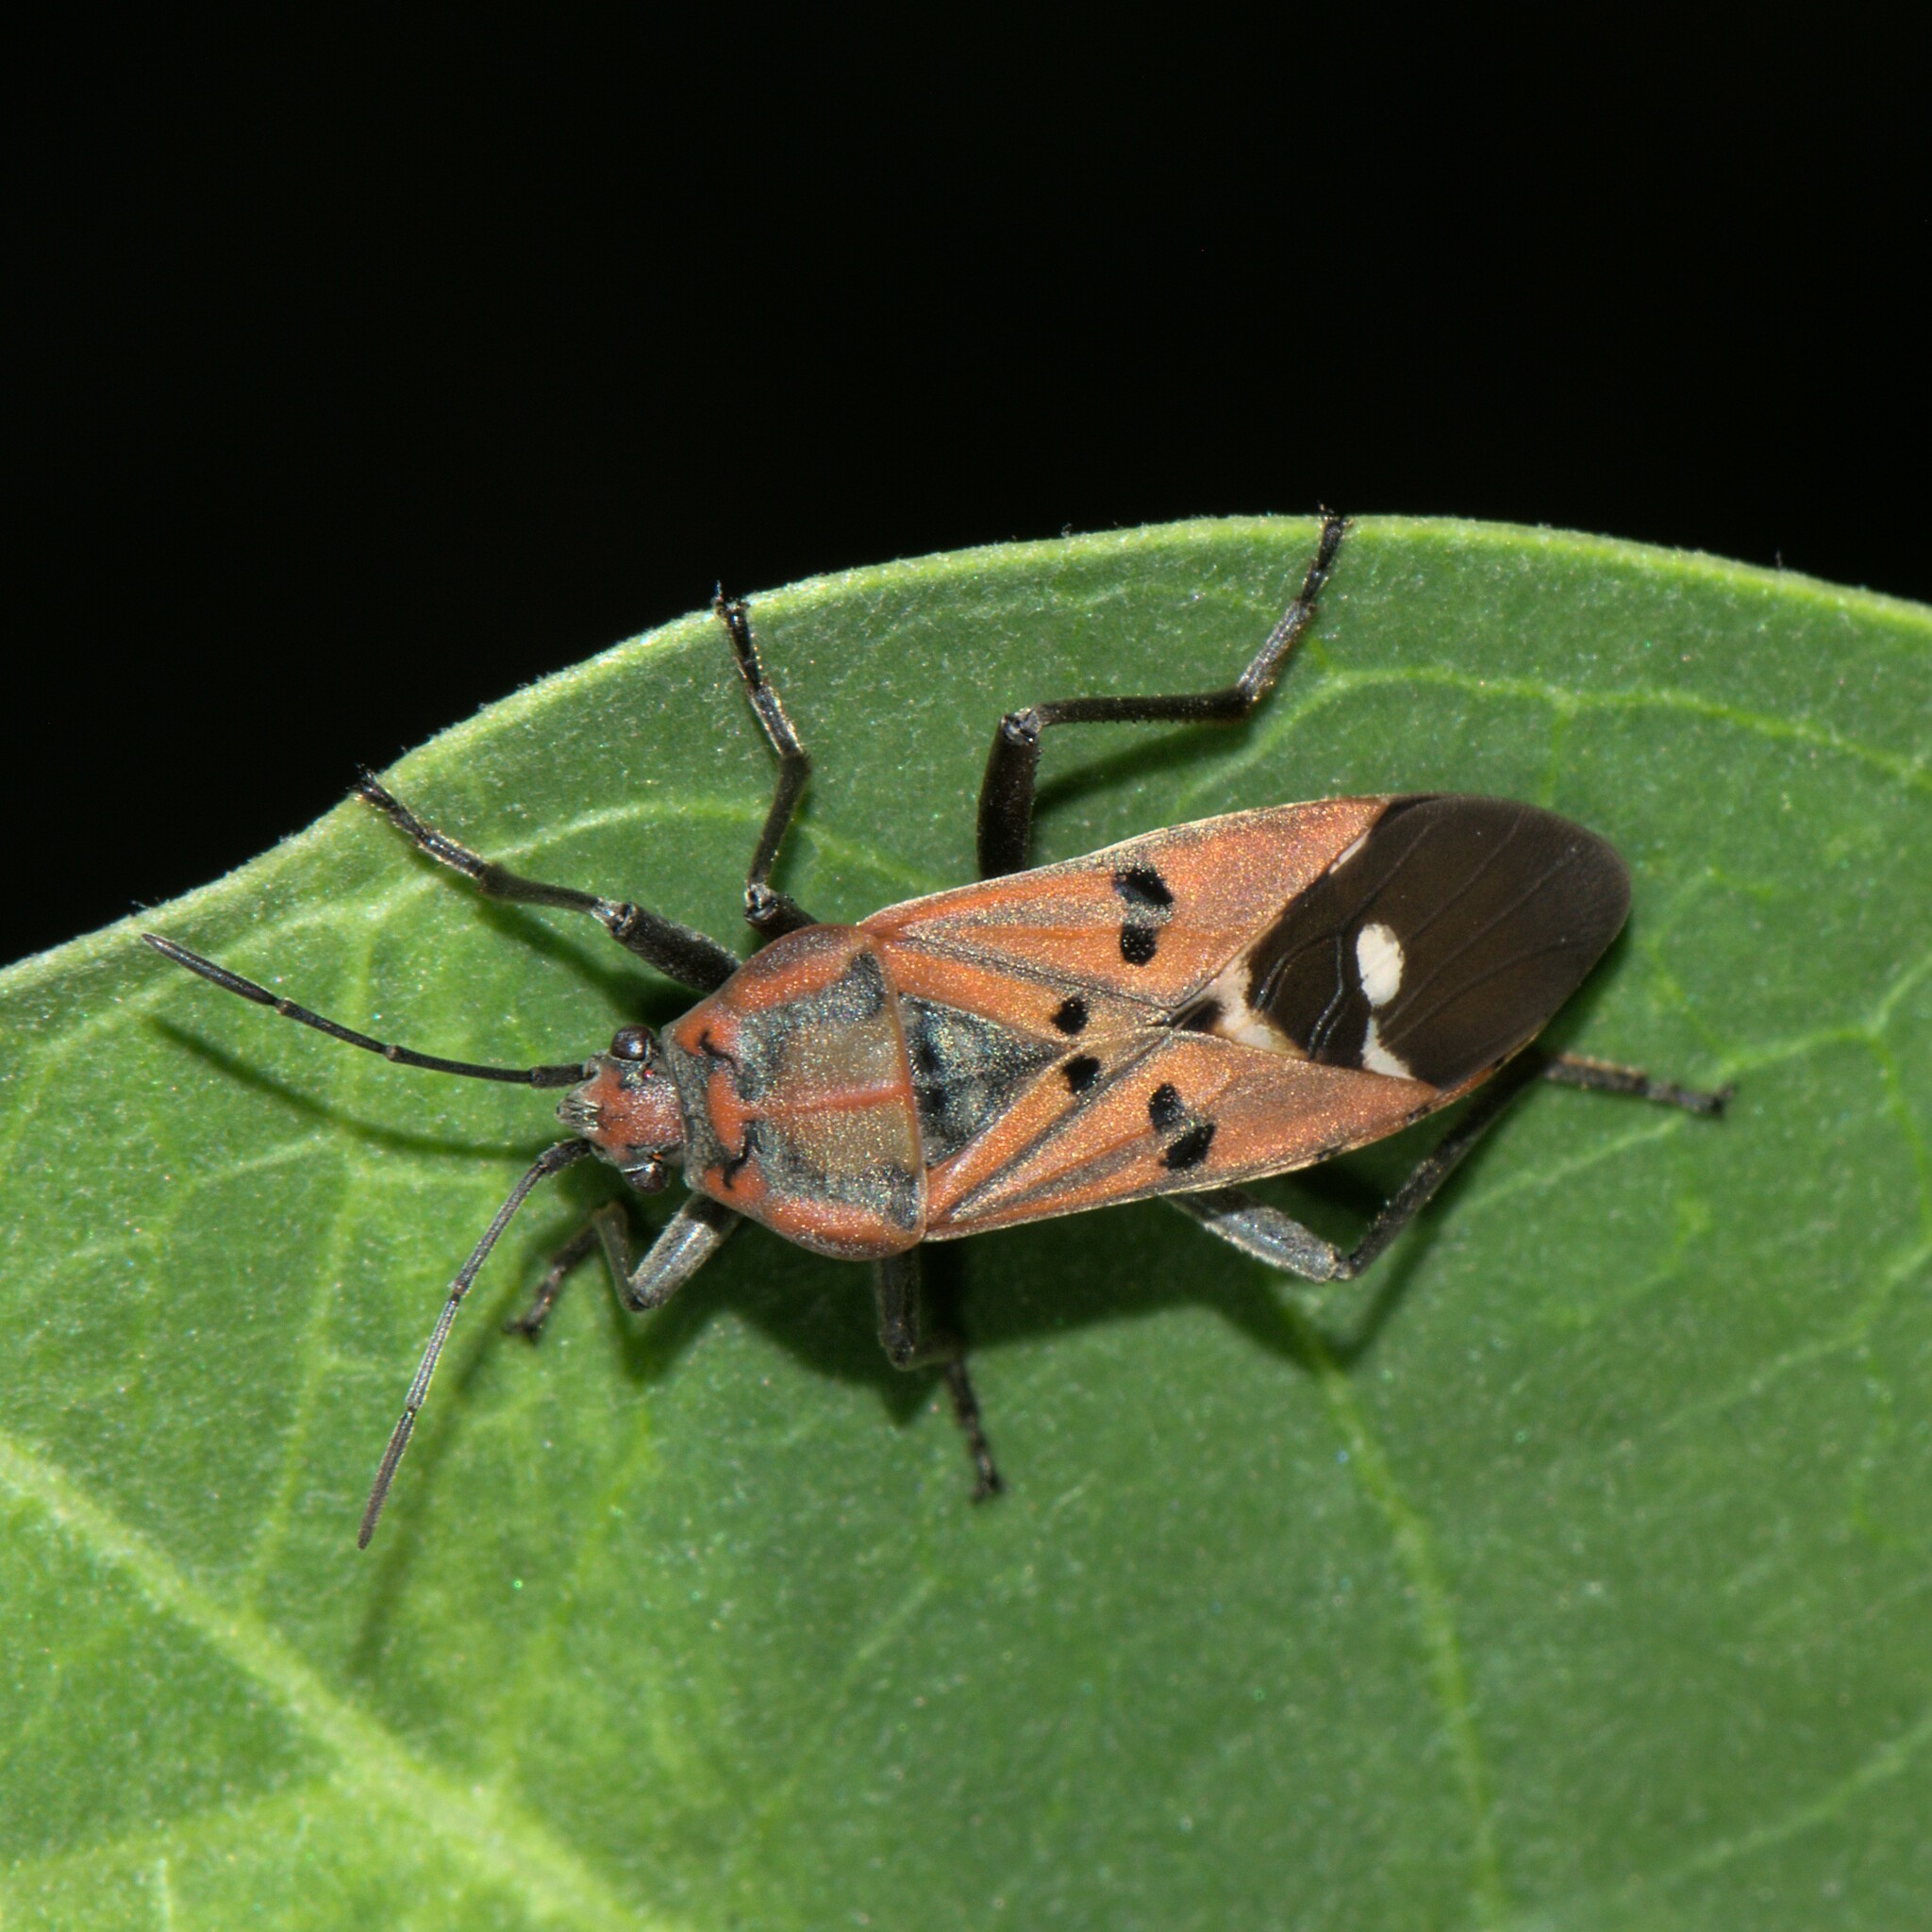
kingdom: Animalia
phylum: Arthropoda
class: Insecta
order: Hemiptera
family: Lygaeidae
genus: Spilostethus
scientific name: Spilostethus pandurus
